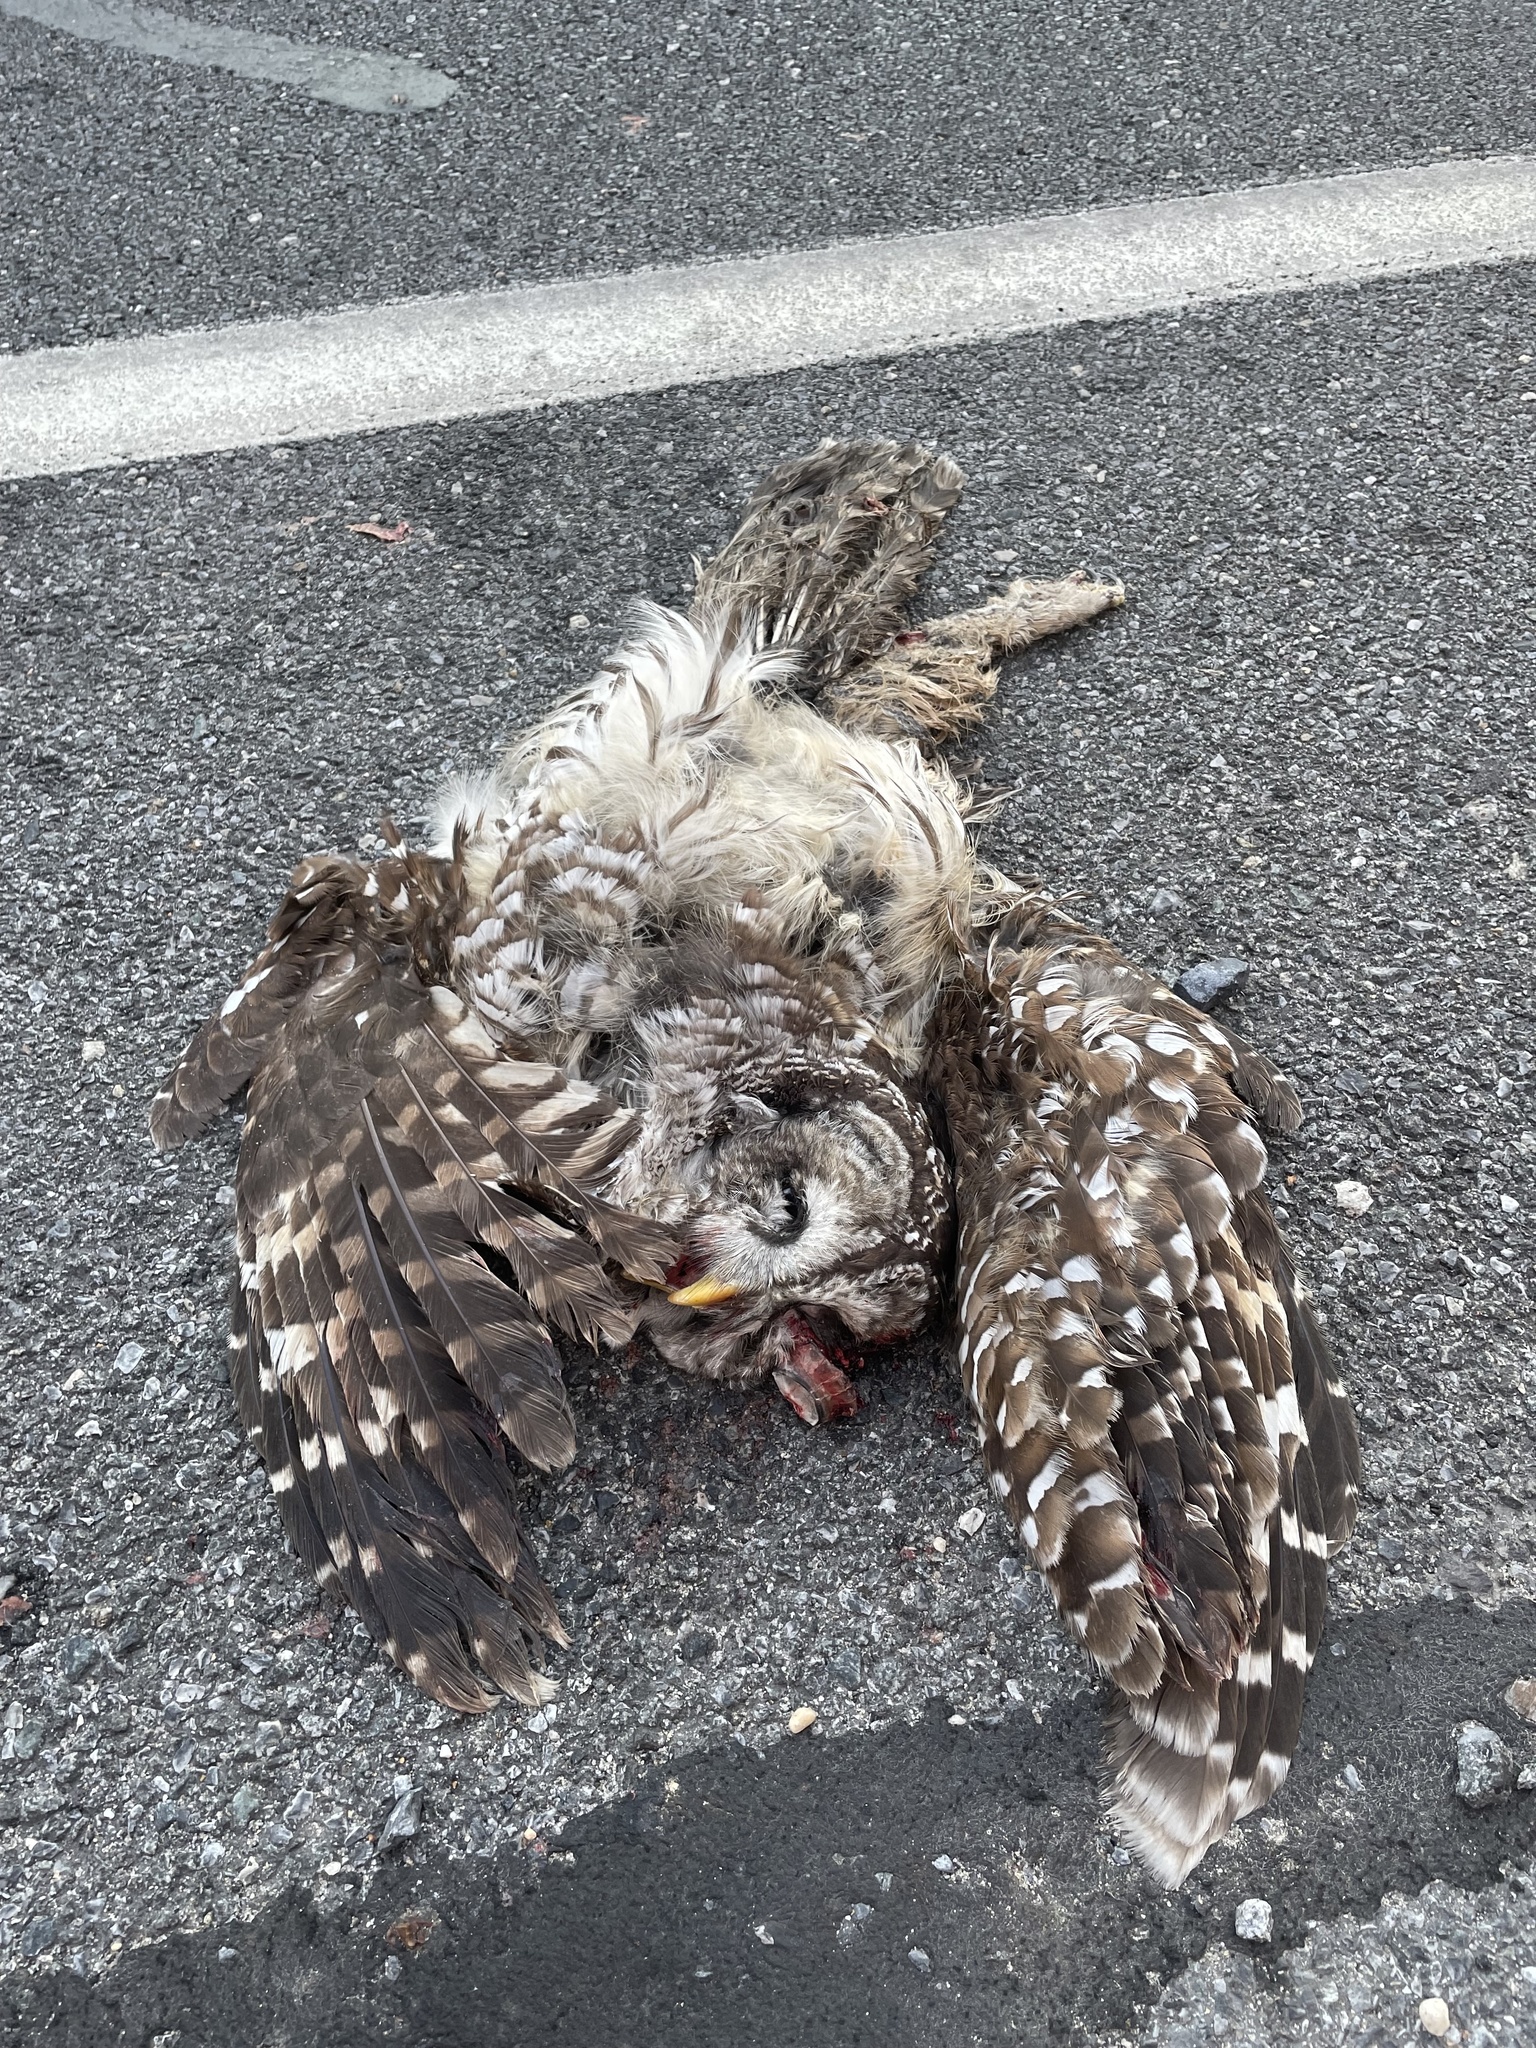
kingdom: Animalia
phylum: Chordata
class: Aves
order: Strigiformes
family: Strigidae
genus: Strix
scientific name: Strix varia
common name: Barred owl
